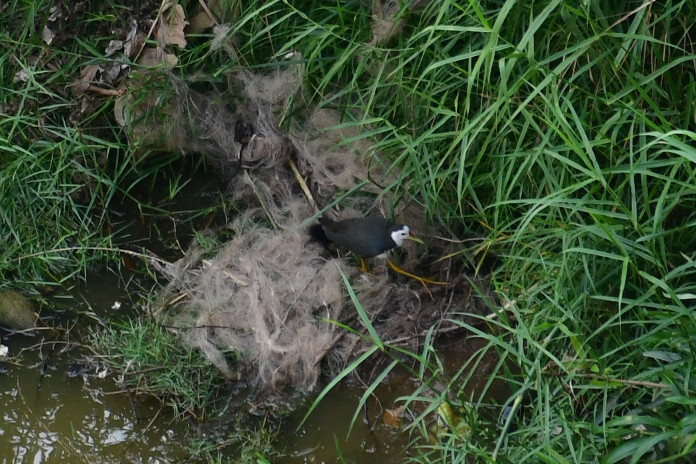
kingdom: Animalia
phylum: Chordata
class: Aves
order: Gruiformes
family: Rallidae
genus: Amaurornis
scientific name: Amaurornis phoenicurus
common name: White-breasted waterhen
